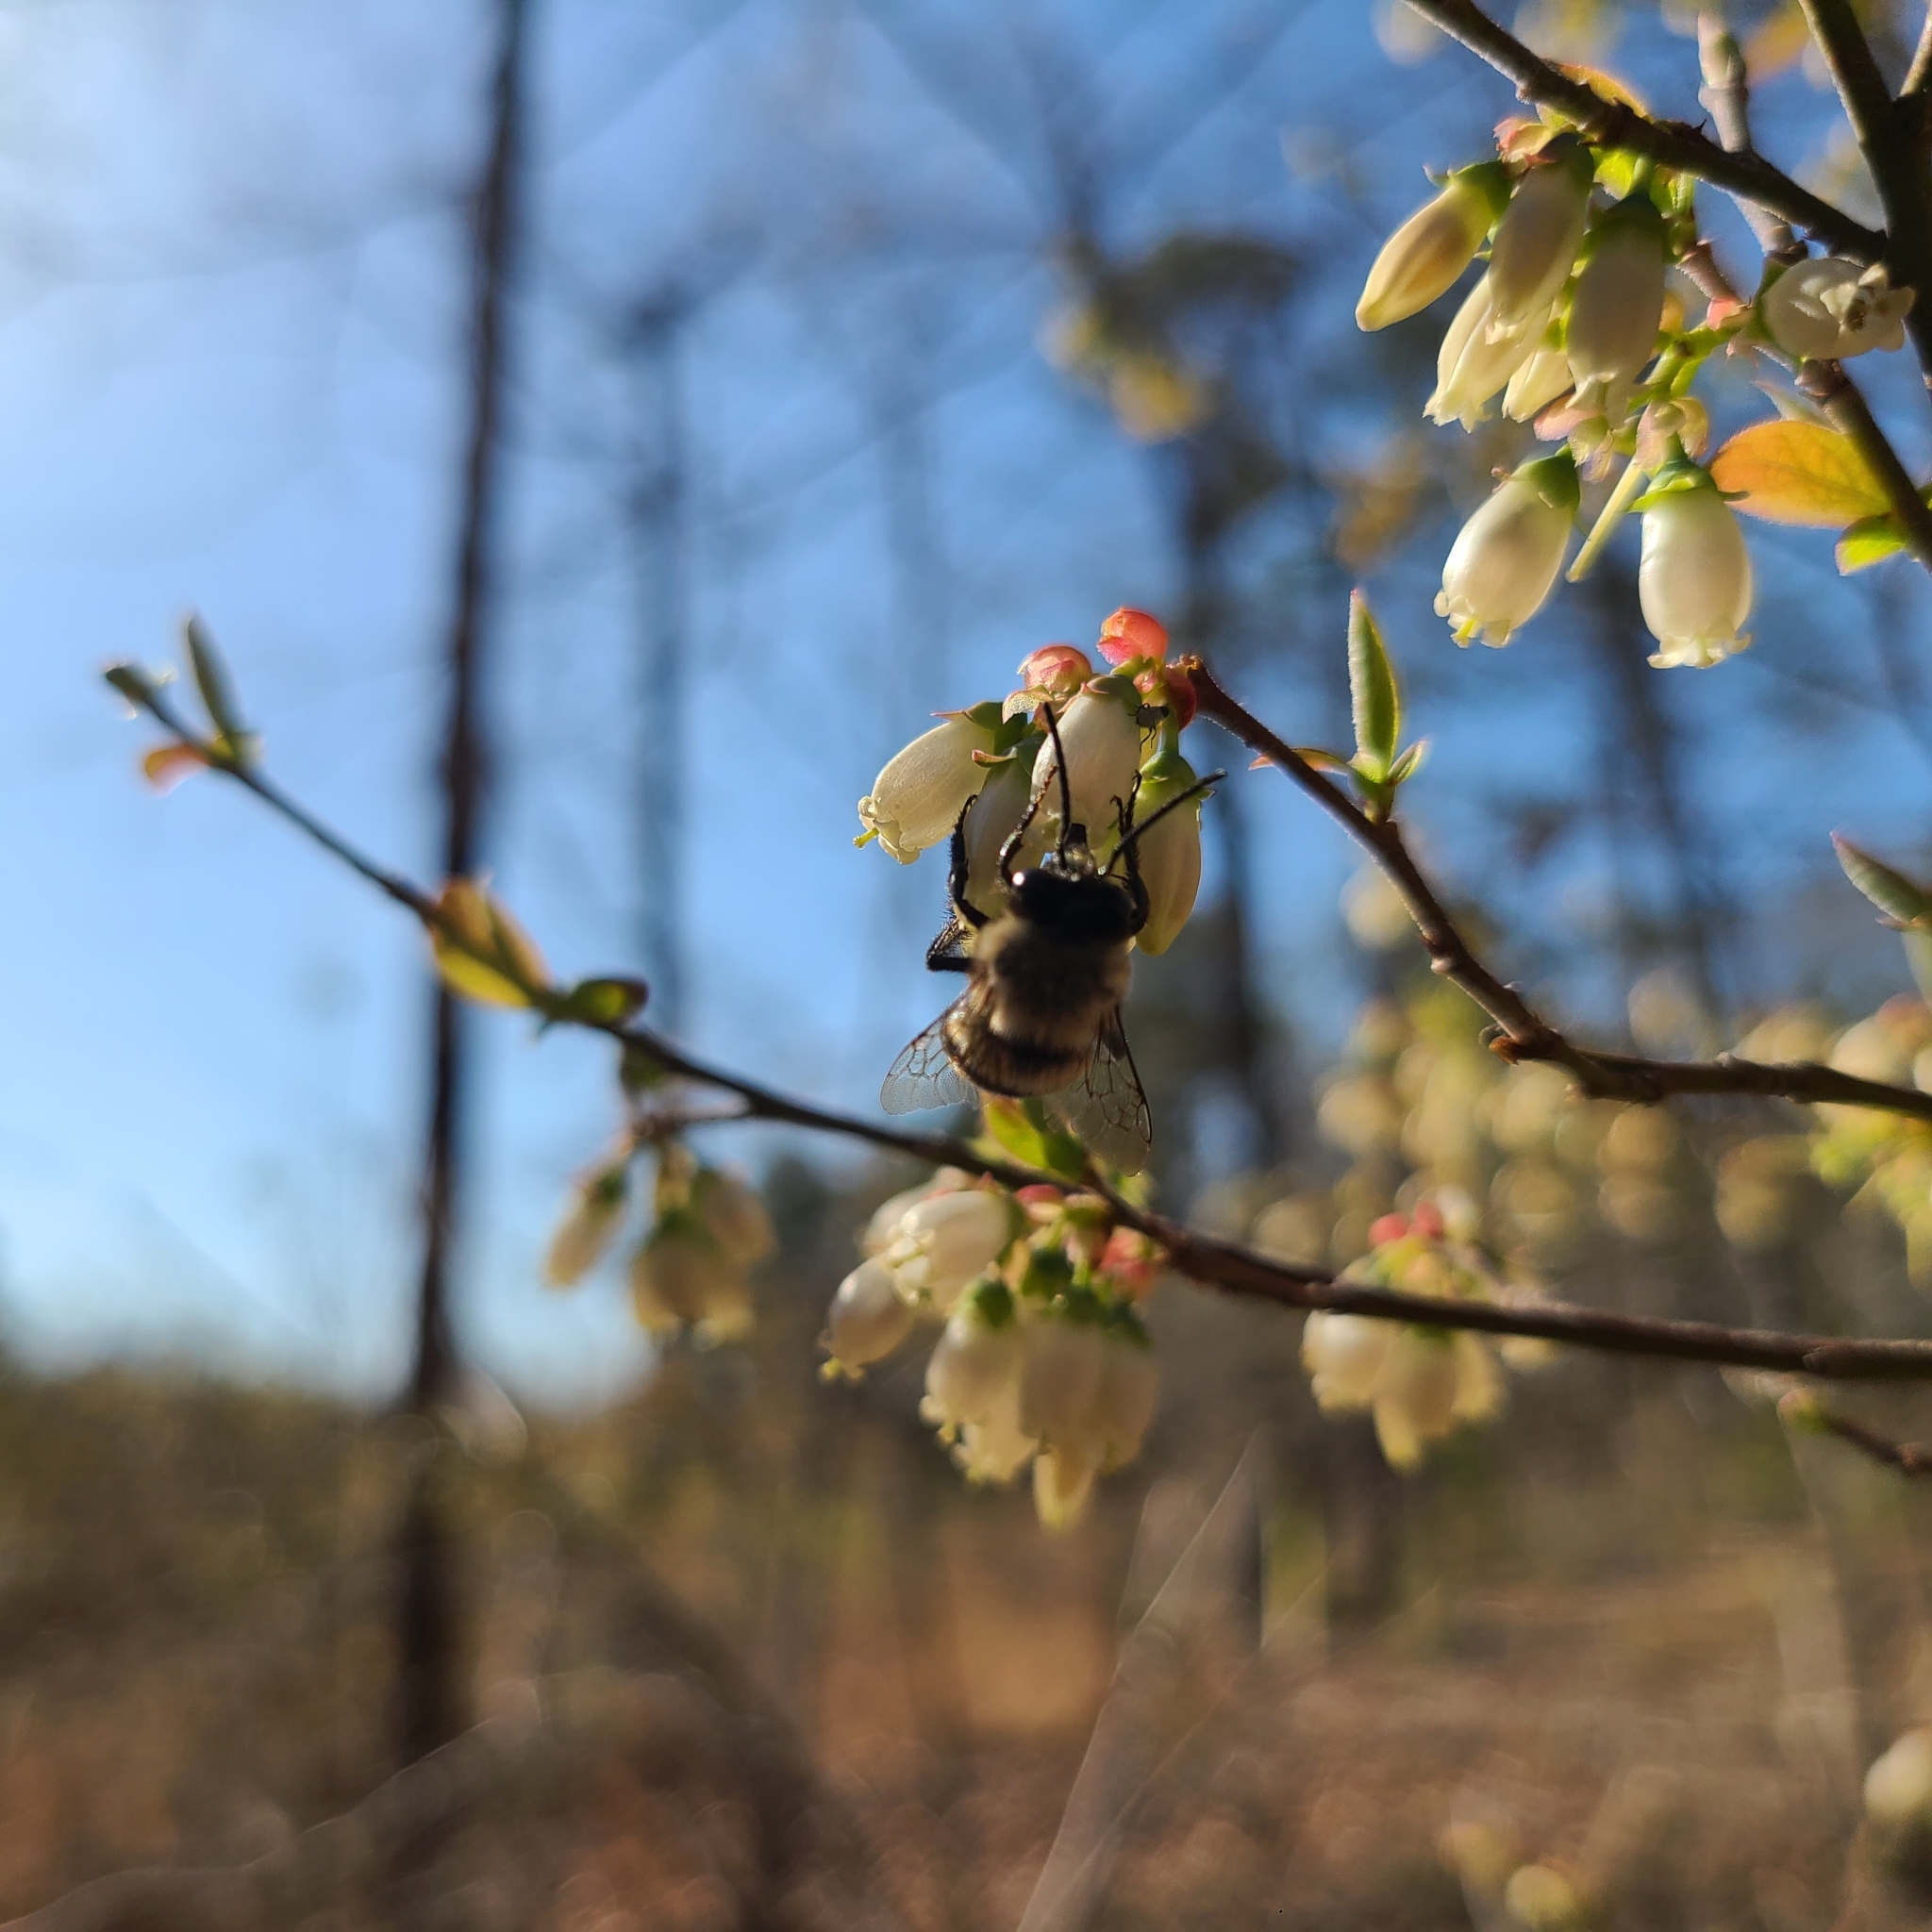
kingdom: Animalia
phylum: Arthropoda
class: Insecta
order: Hymenoptera
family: Apidae
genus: Habropoda
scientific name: Habropoda laboriosa
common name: Southeastern blueberry bee
